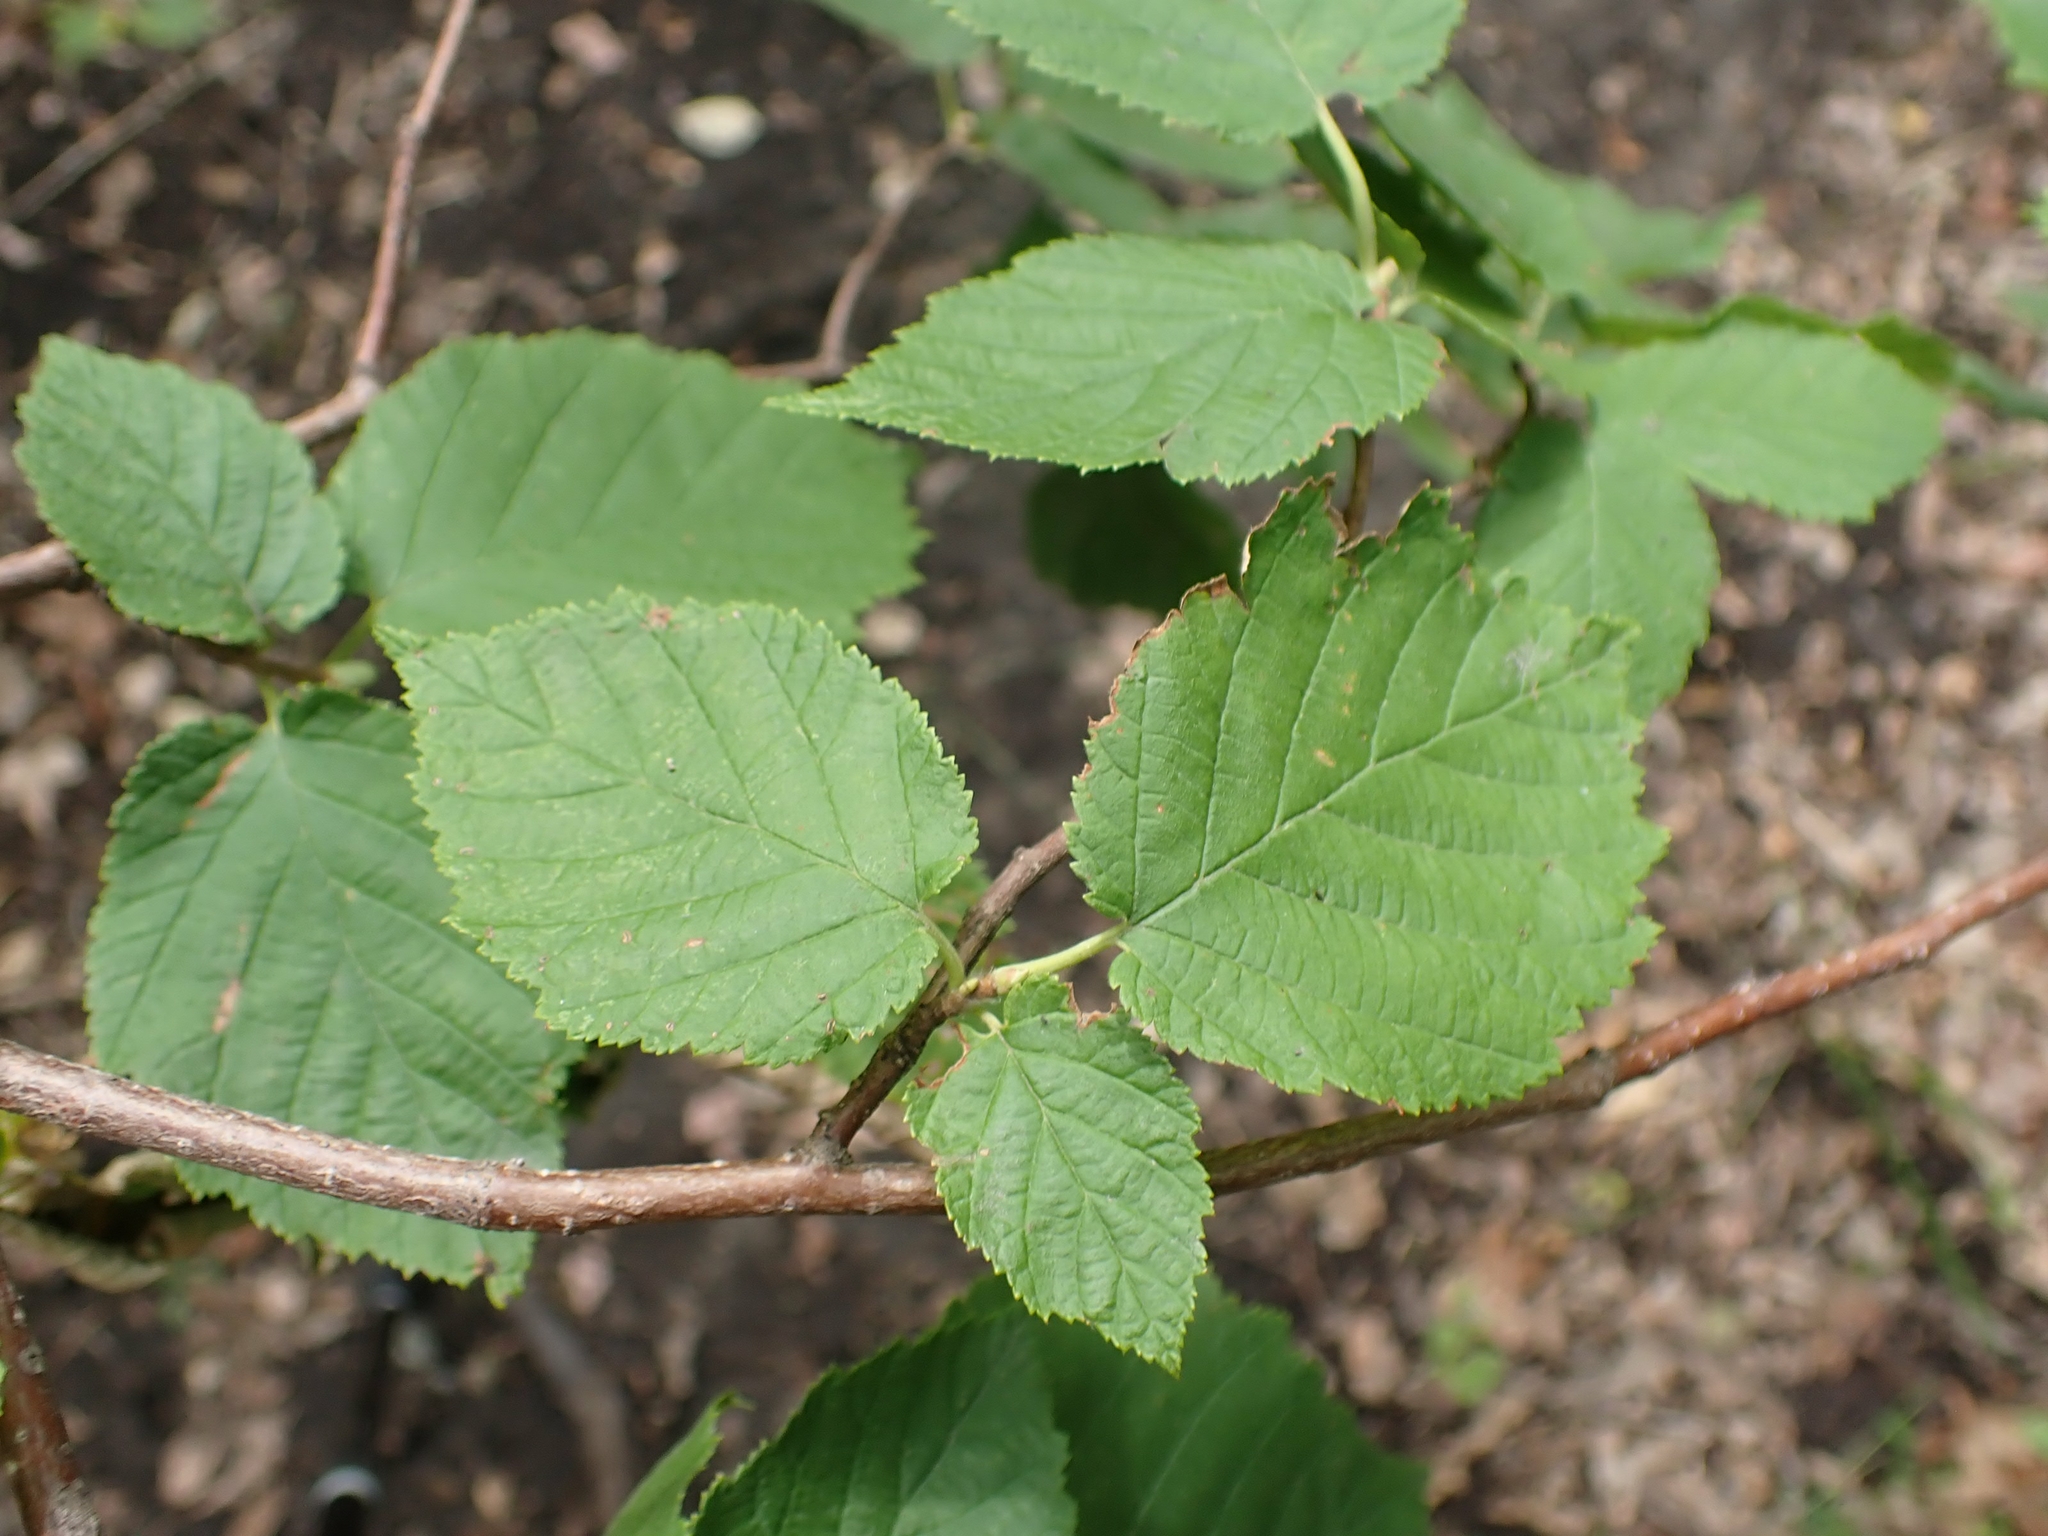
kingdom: Plantae
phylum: Tracheophyta
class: Magnoliopsida
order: Fagales
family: Betulaceae
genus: Corylus
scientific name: Corylus cornuta
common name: Beaked hazel
